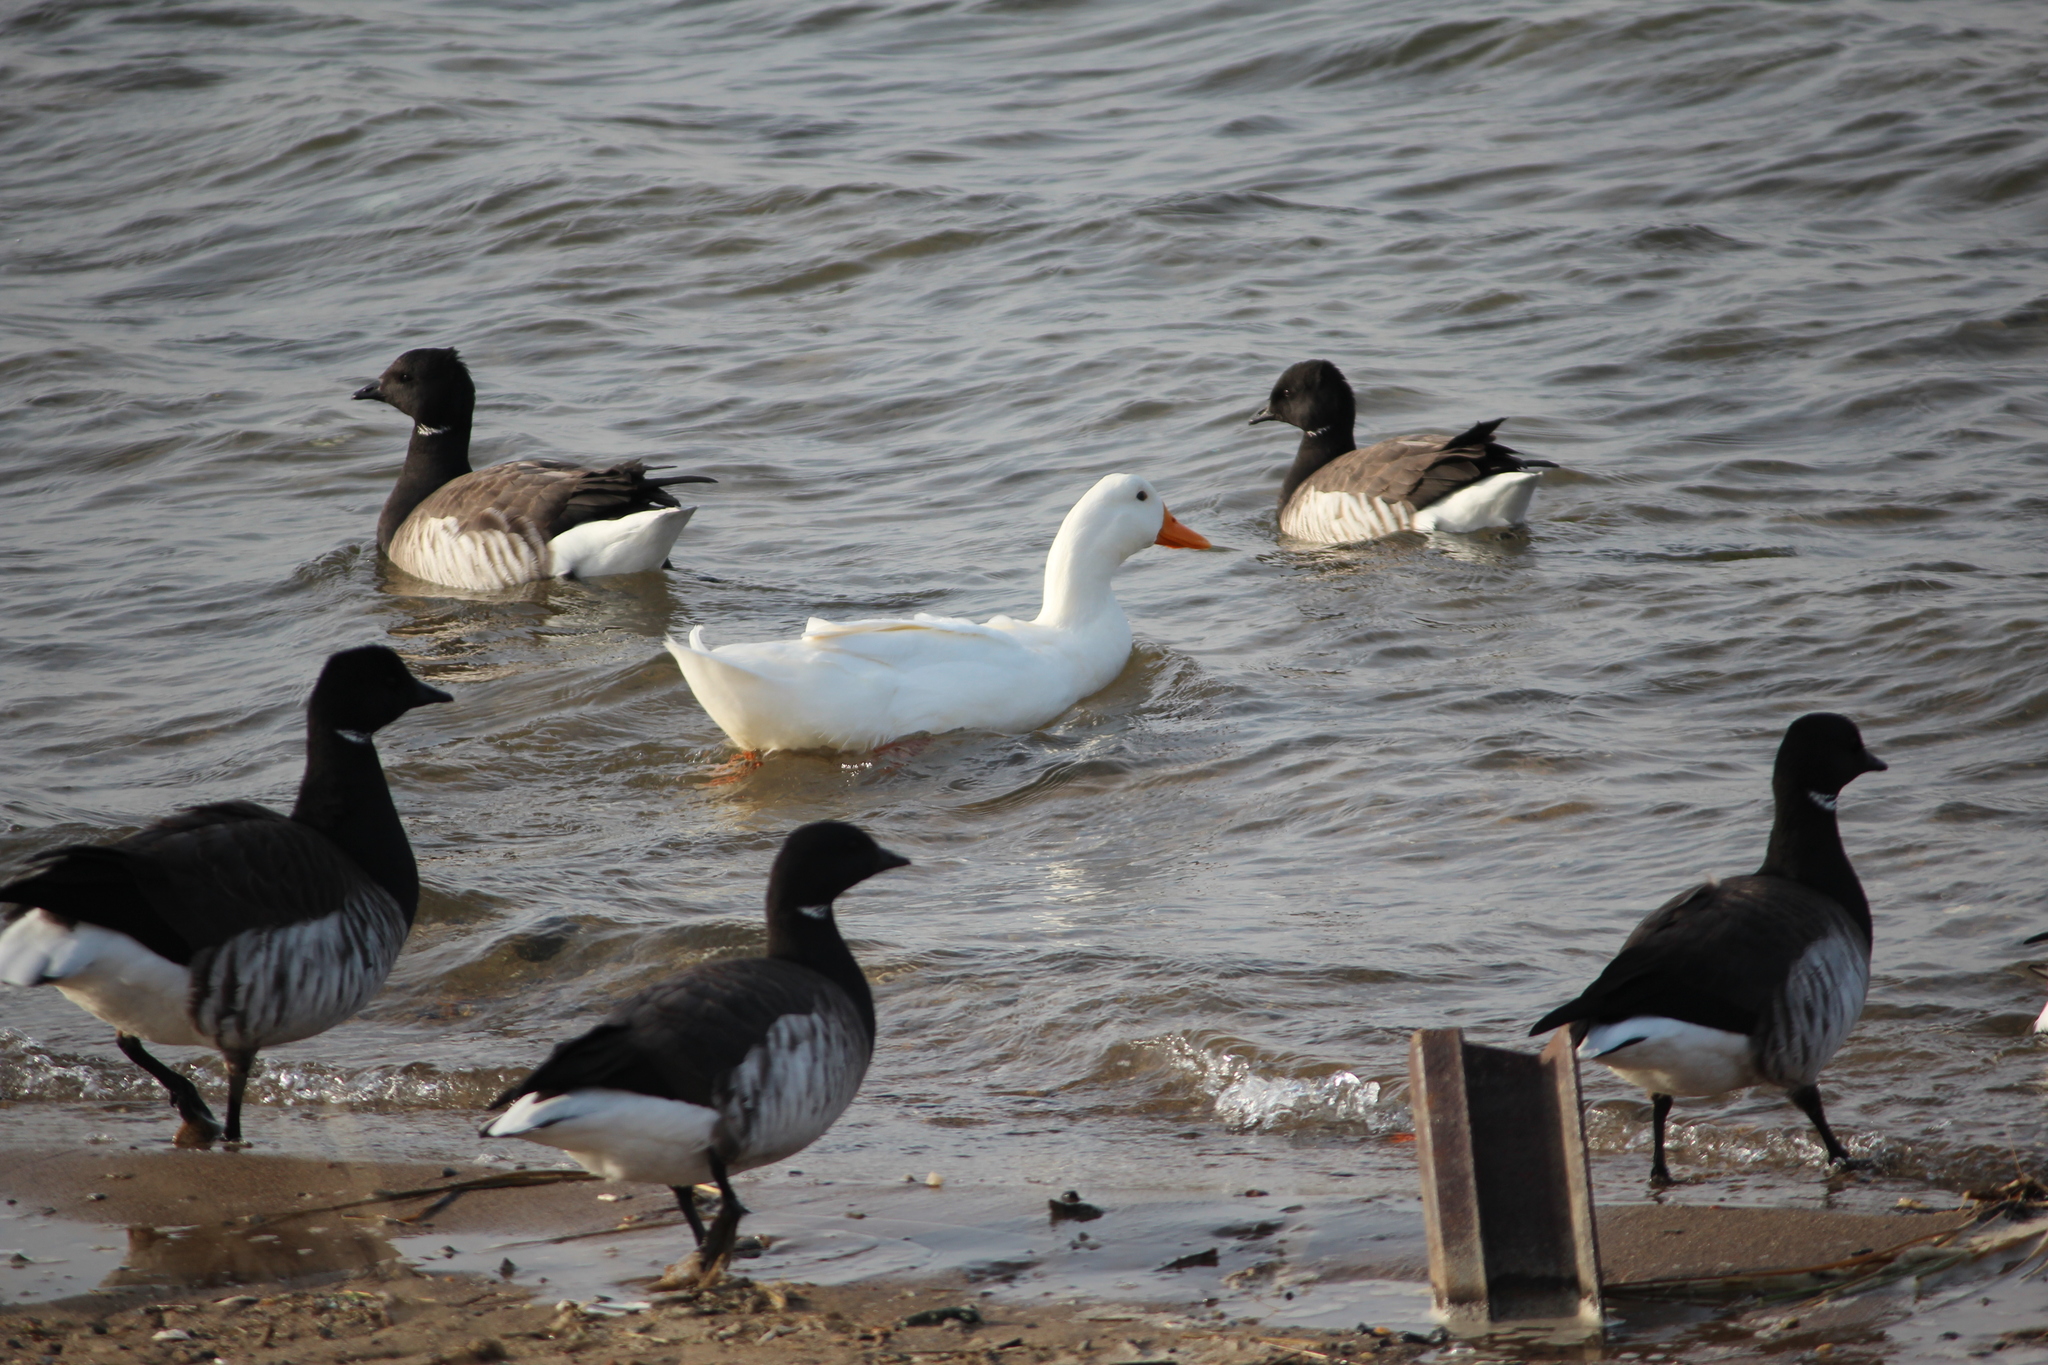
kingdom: Animalia
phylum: Chordata
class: Aves
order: Anseriformes
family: Anatidae
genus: Anas
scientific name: Anas platyrhynchos
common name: Mallard
